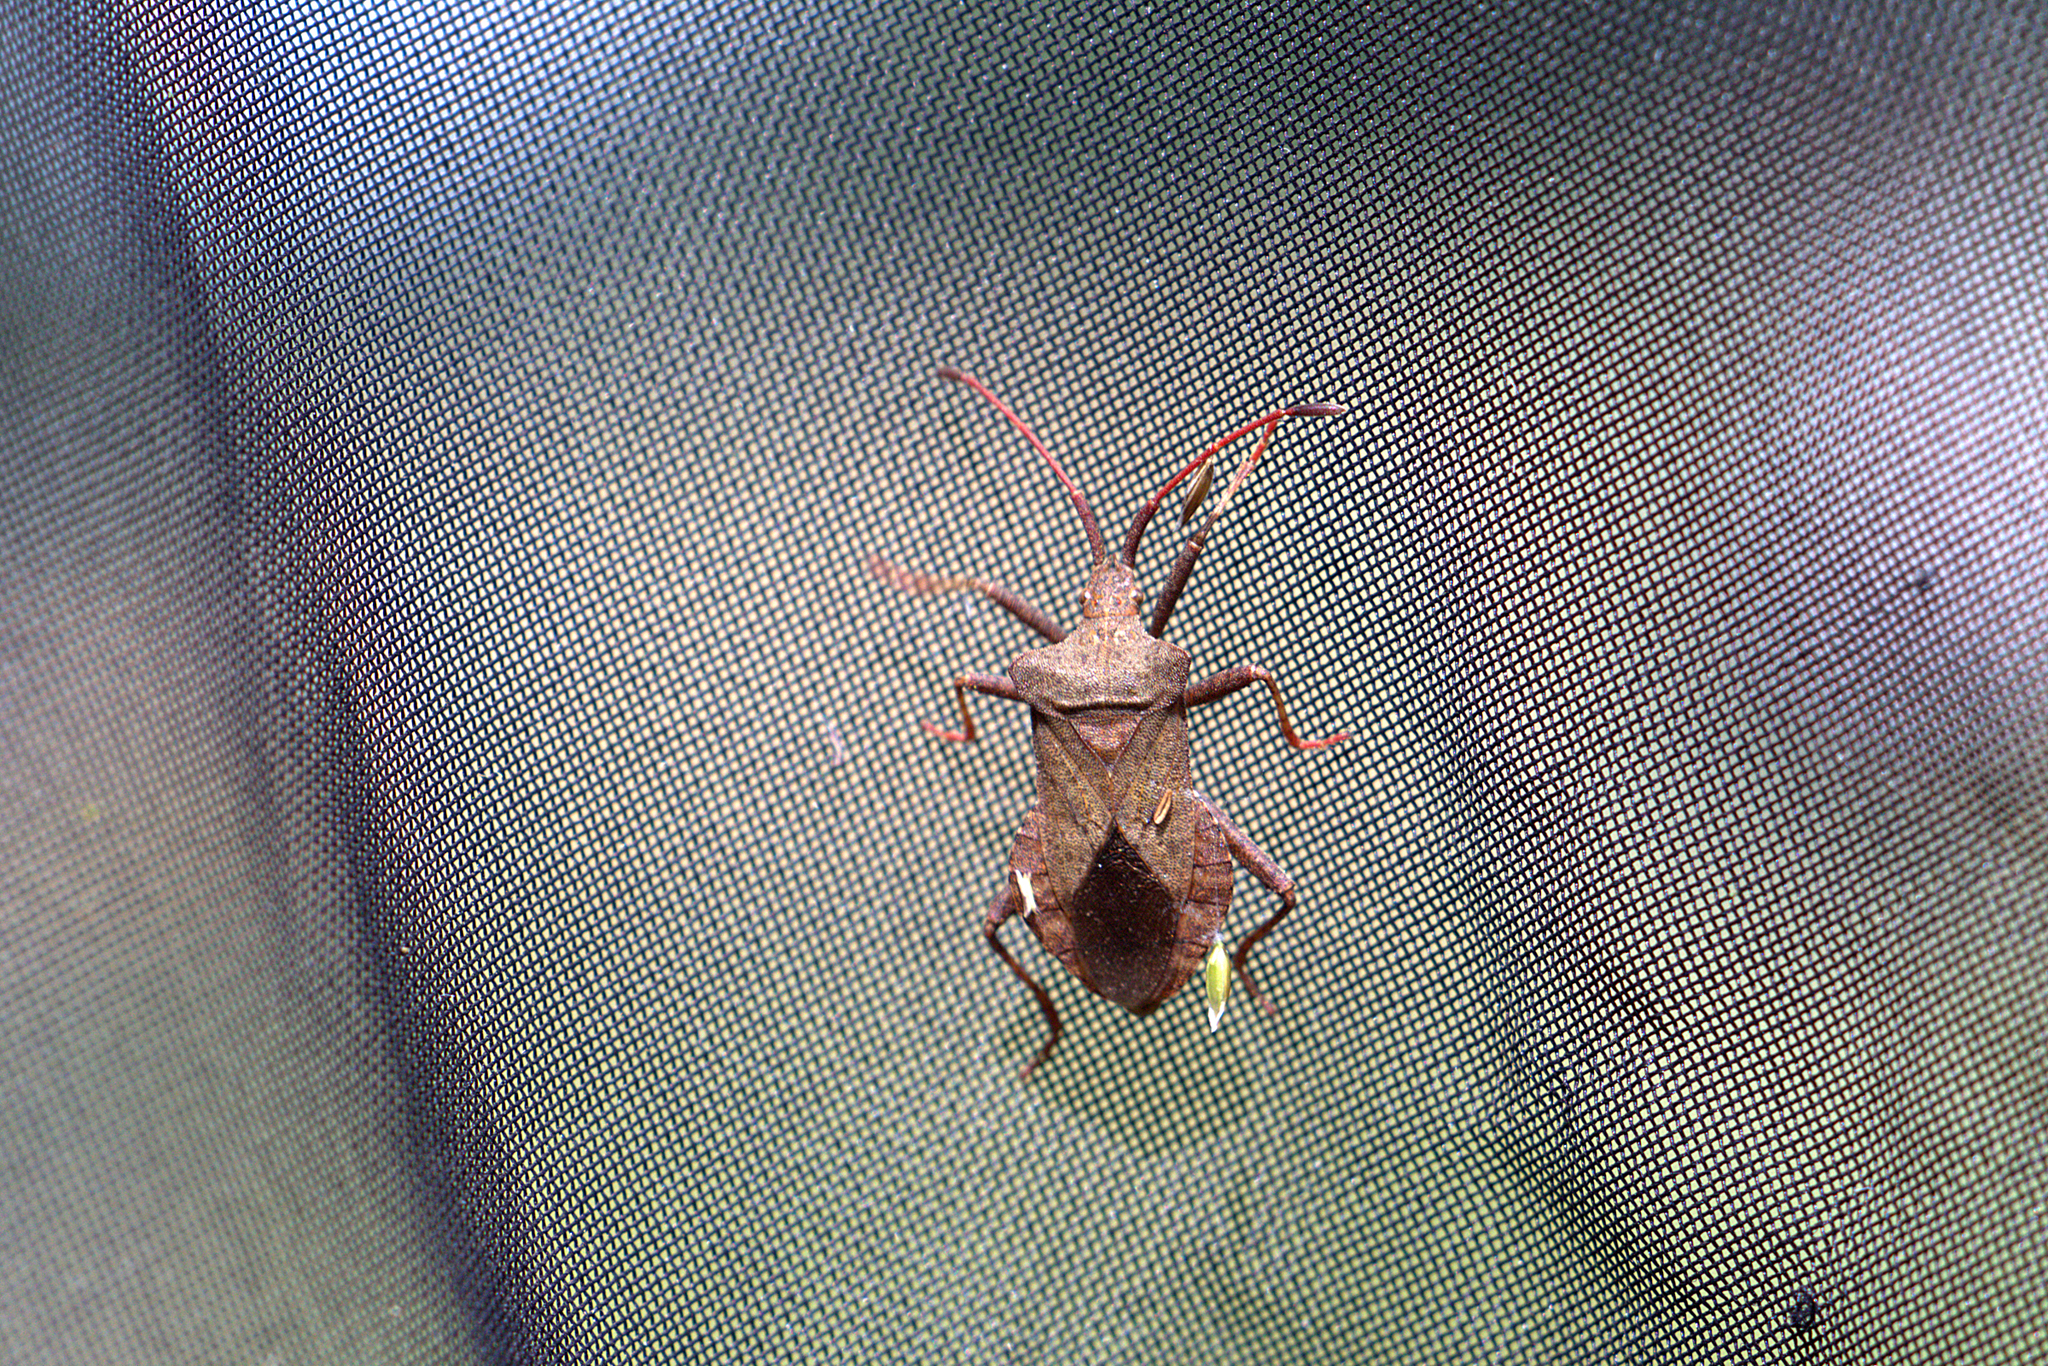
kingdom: Animalia
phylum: Arthropoda
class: Insecta
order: Hemiptera
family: Coreidae
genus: Coreus
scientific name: Coreus marginatus
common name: Dock bug
